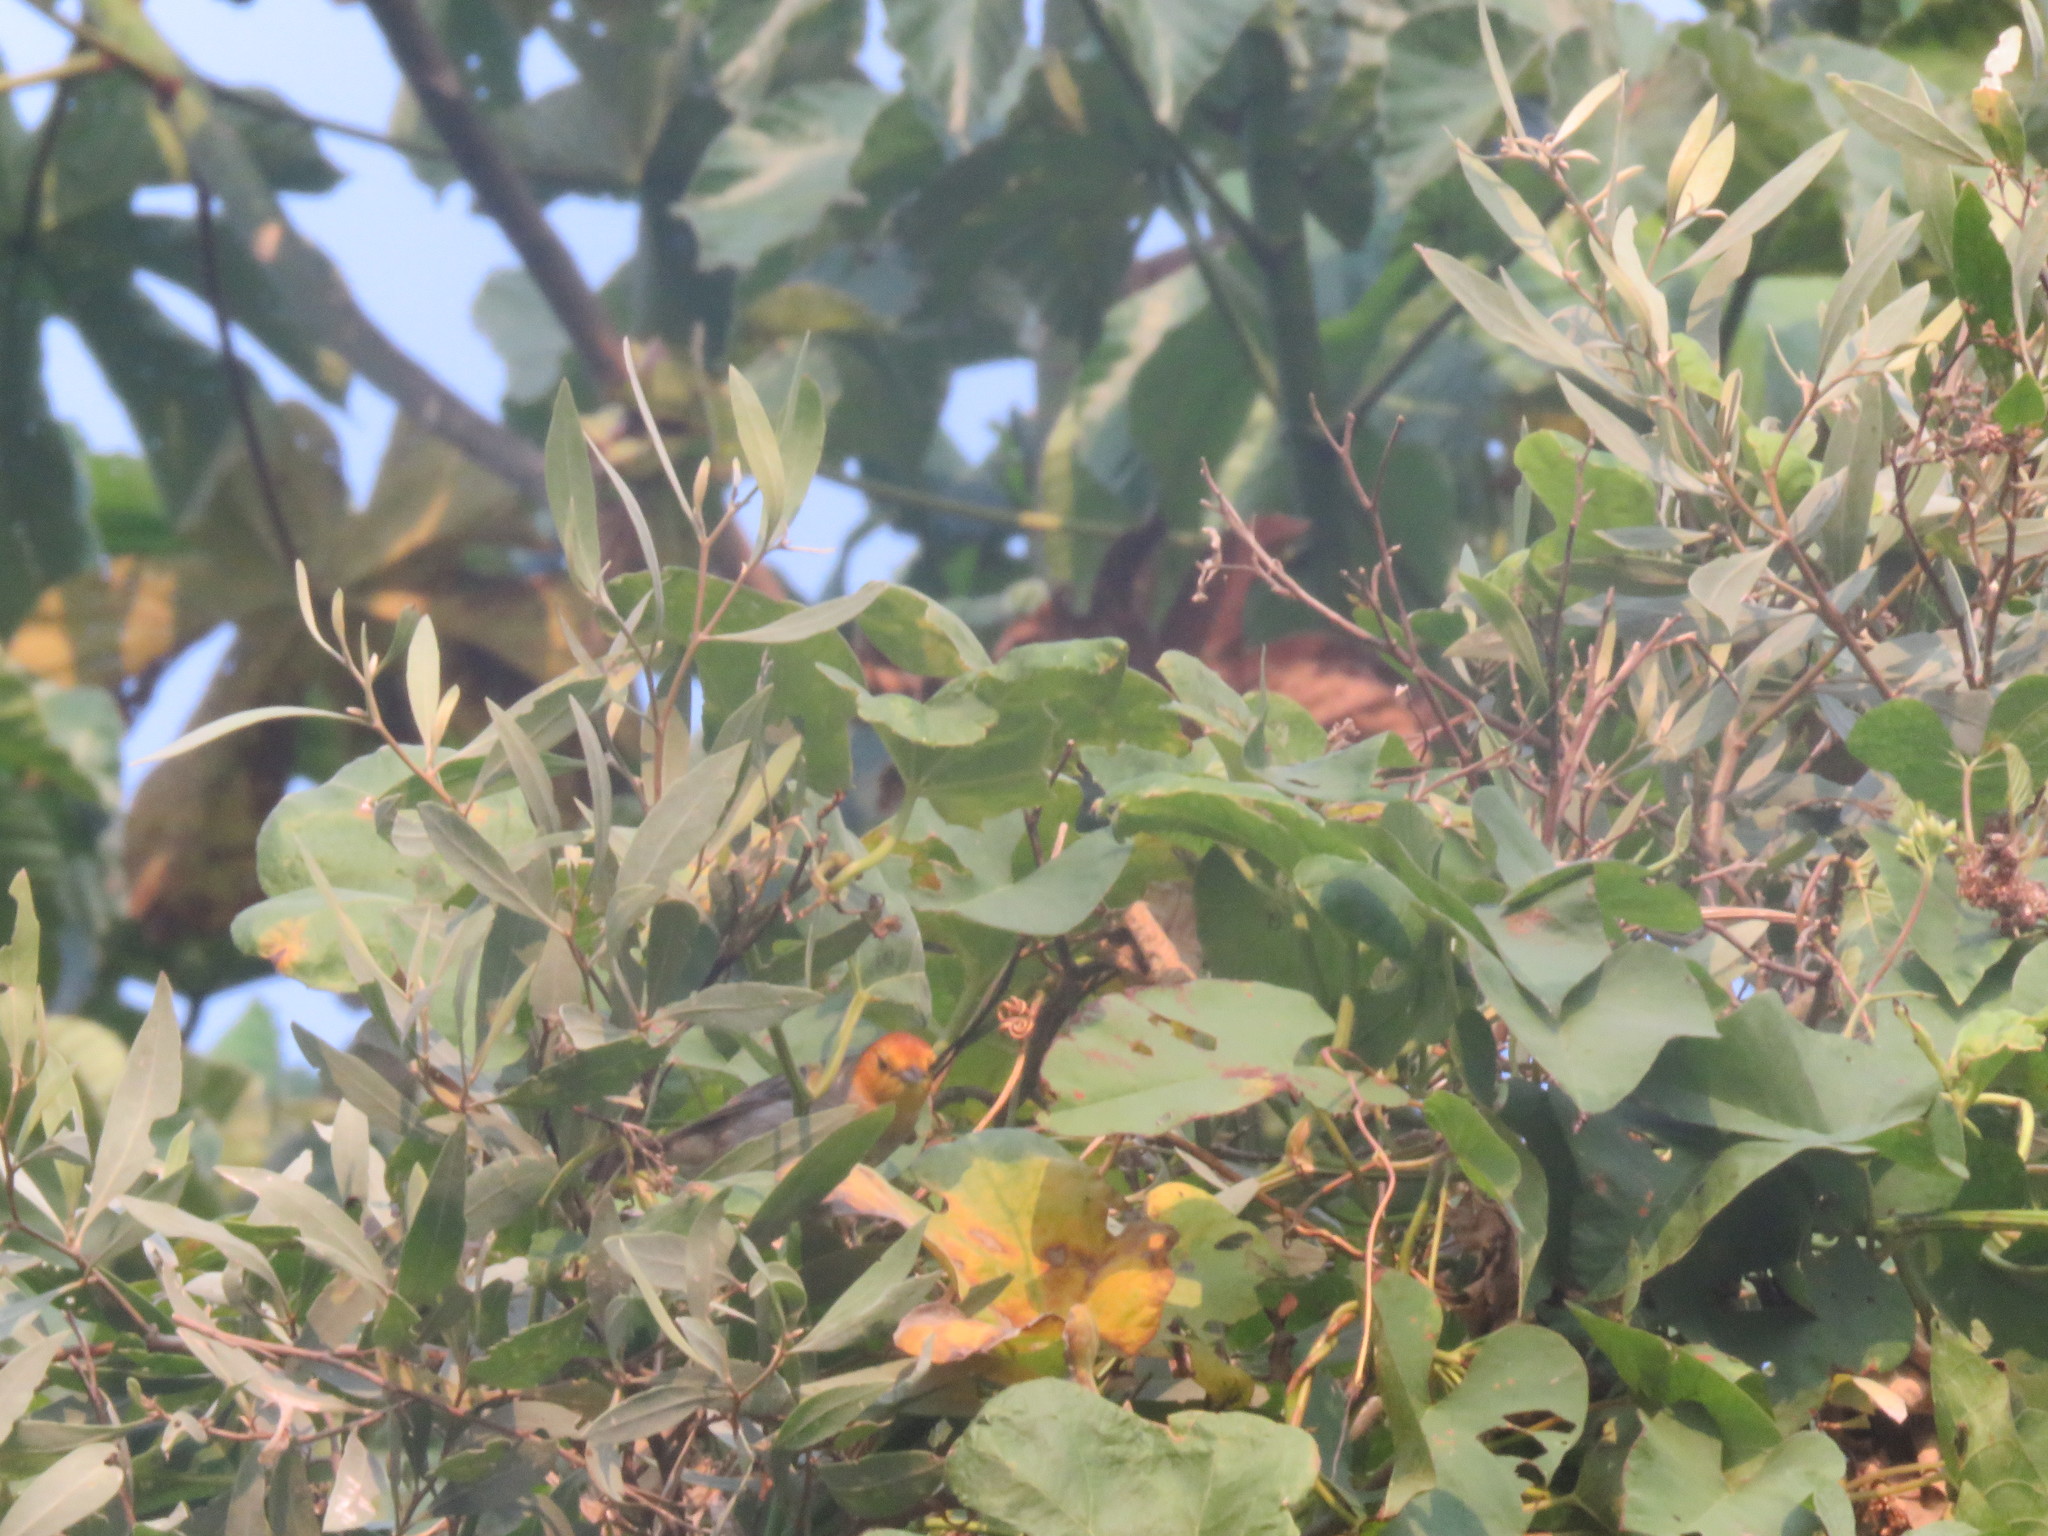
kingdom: Animalia
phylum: Chordata
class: Aves
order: Passeriformes
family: Thraupidae
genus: Thlypopsis
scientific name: Thlypopsis sordida
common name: Orange-headed tanager
